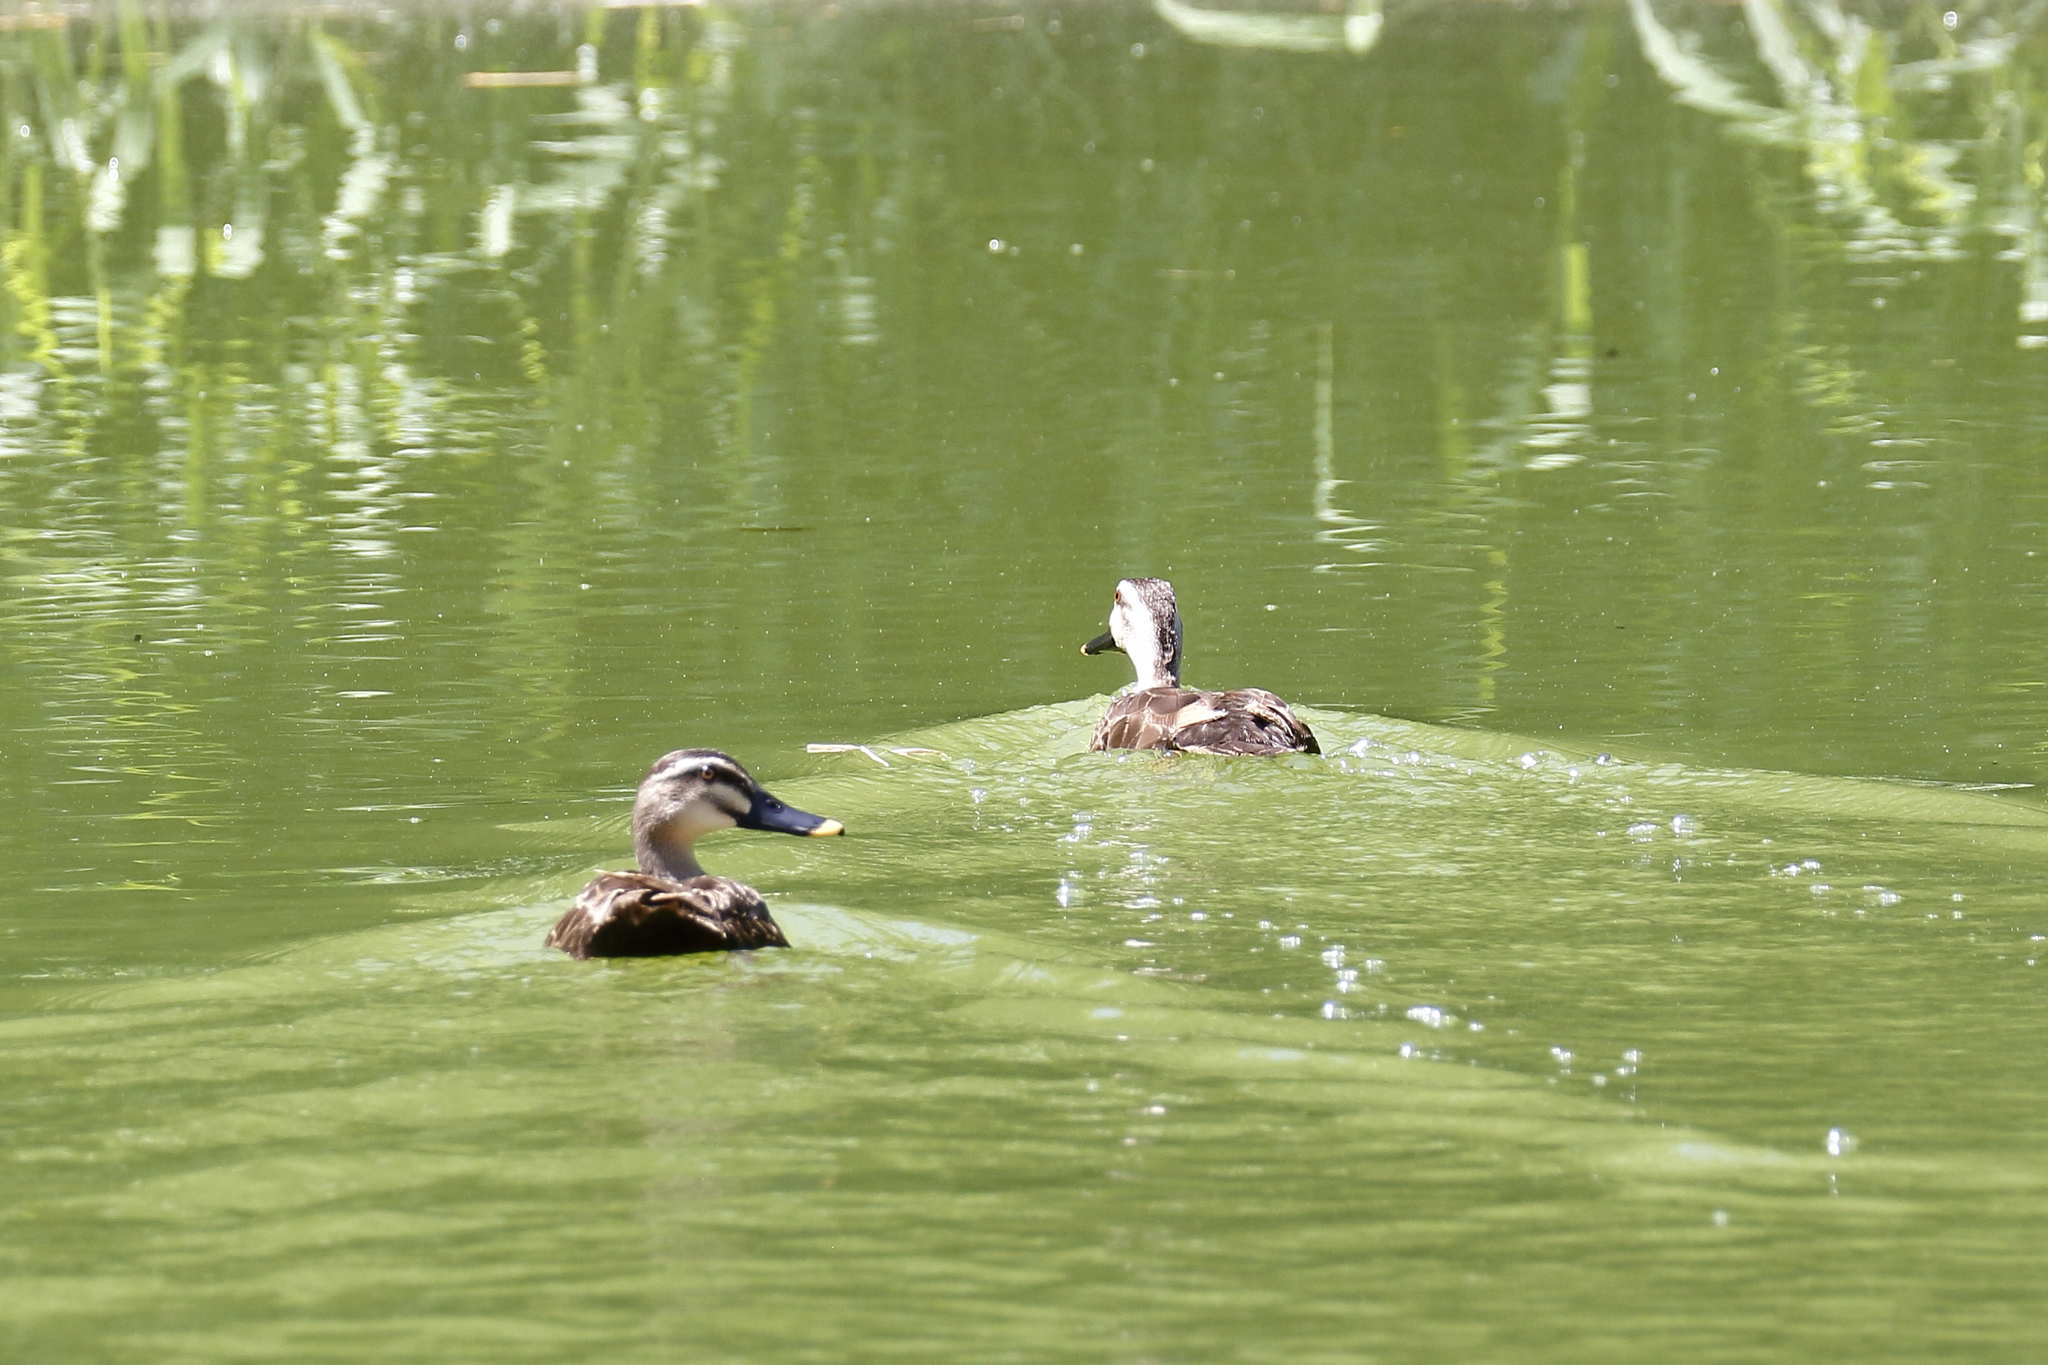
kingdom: Animalia
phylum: Chordata
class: Aves
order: Anseriformes
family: Anatidae
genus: Anas
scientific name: Anas zonorhyncha
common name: Eastern spot-billed duck
